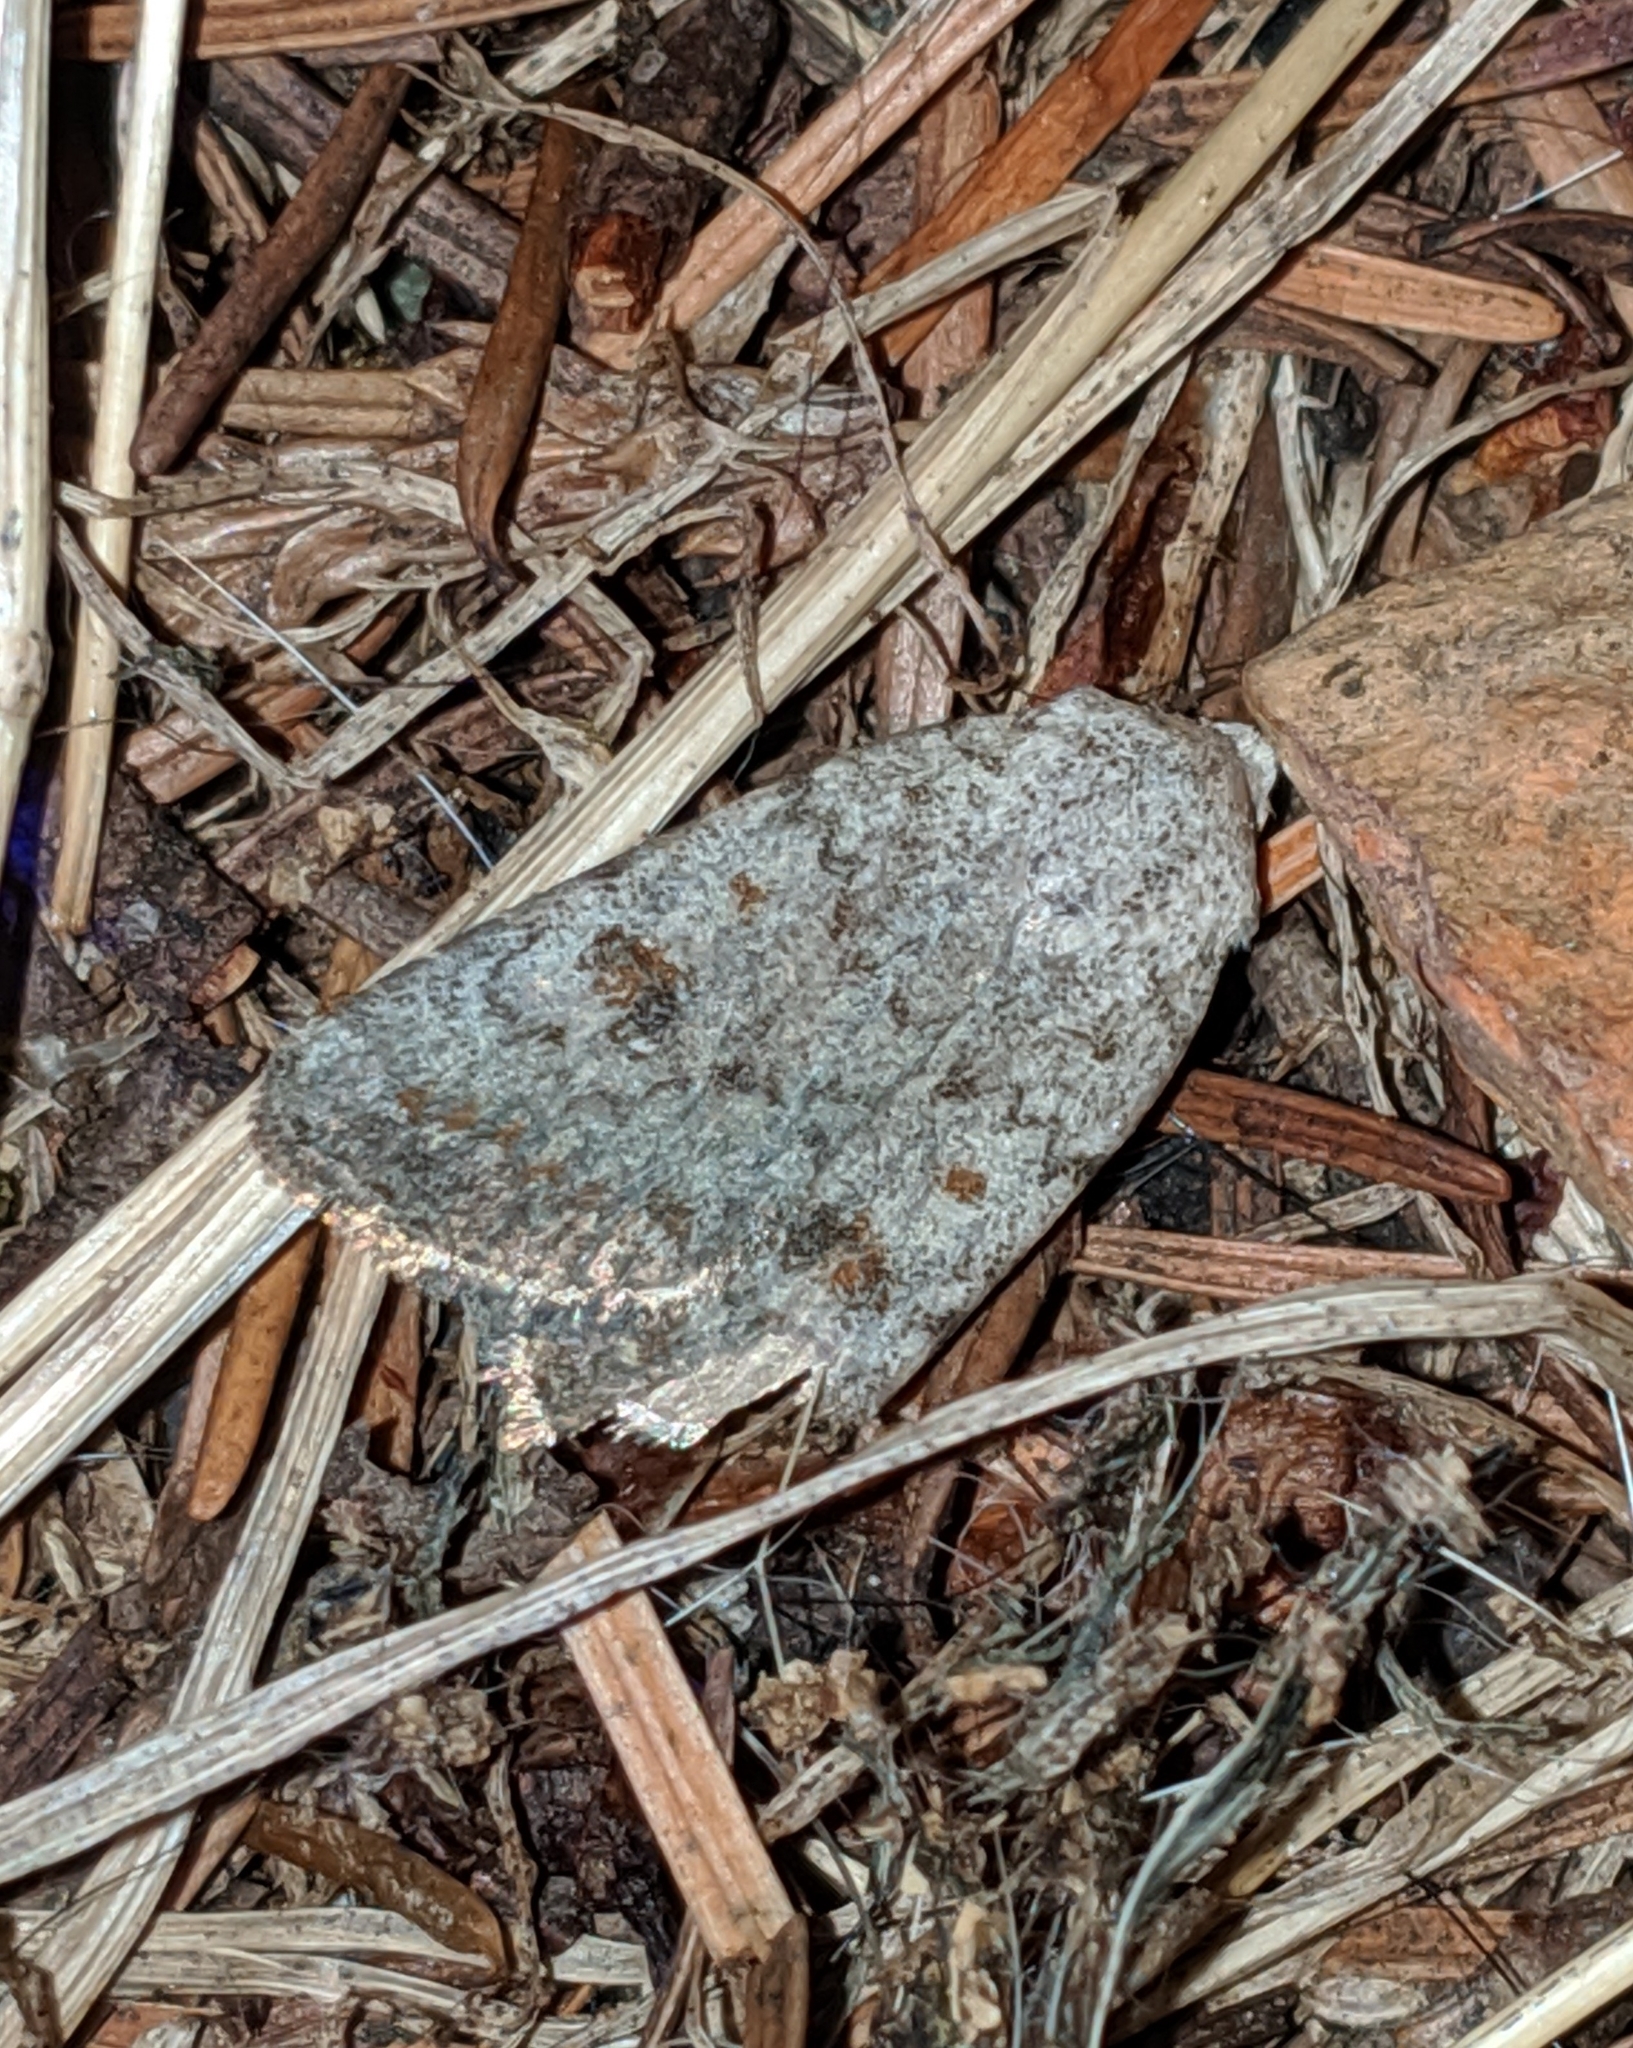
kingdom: Animalia
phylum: Arthropoda
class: Insecta
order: Lepidoptera
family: Noctuidae
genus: Caradrina
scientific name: Caradrina montana
